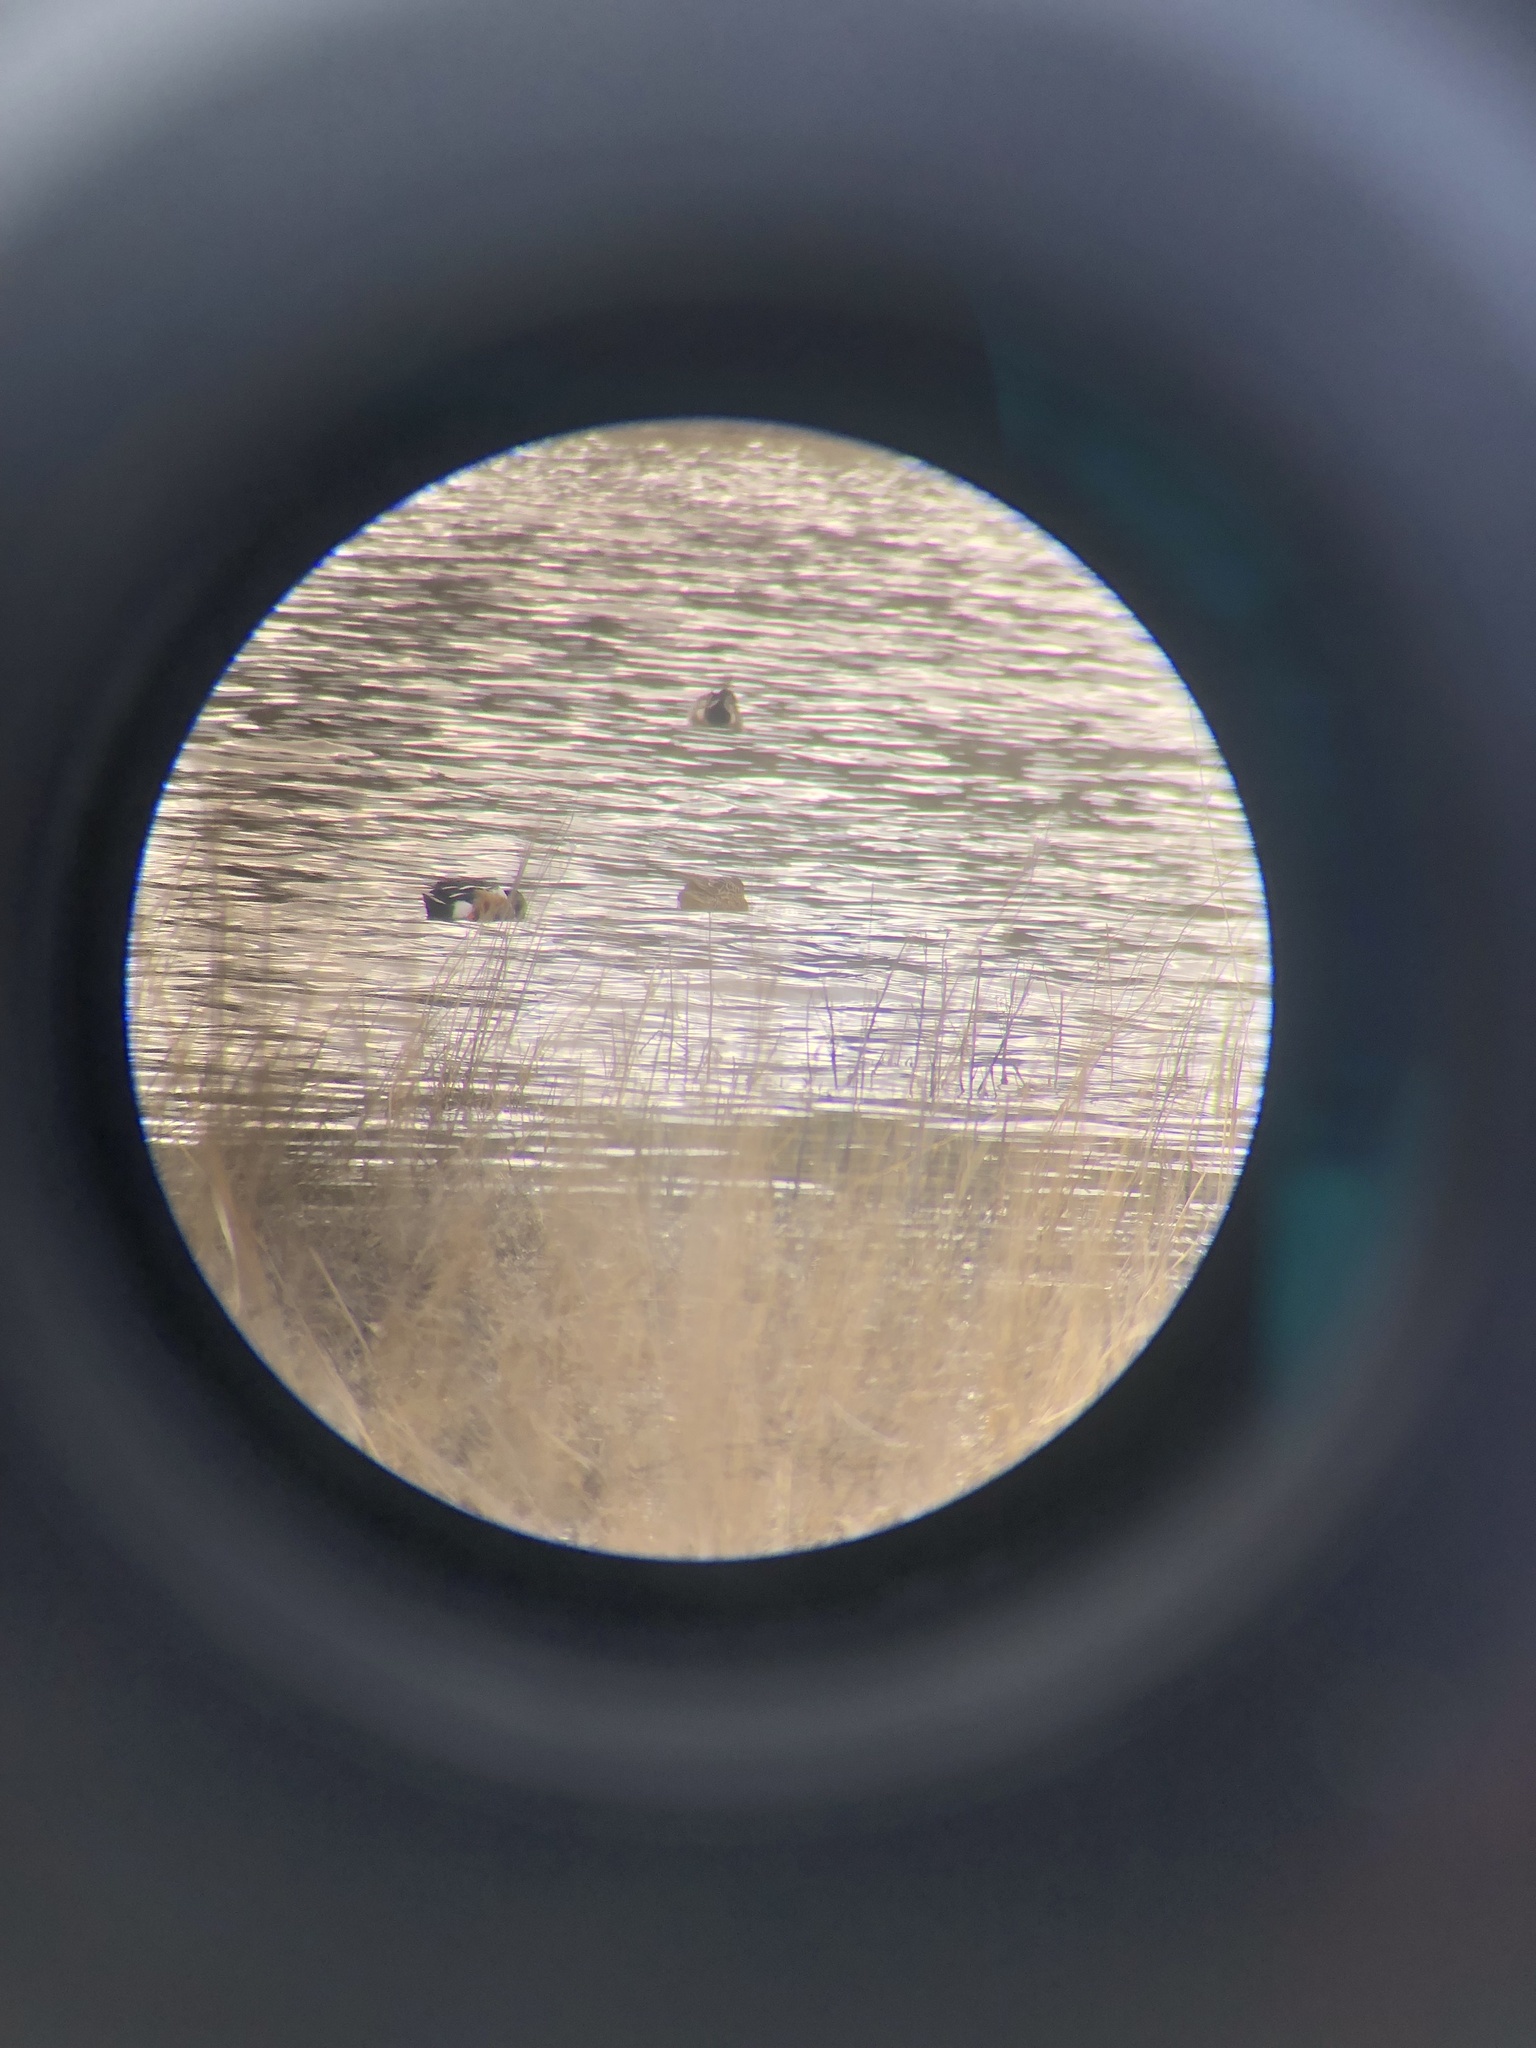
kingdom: Animalia
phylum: Chordata
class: Aves
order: Anseriformes
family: Anatidae
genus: Spatula
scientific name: Spatula clypeata
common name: Northern shoveler
